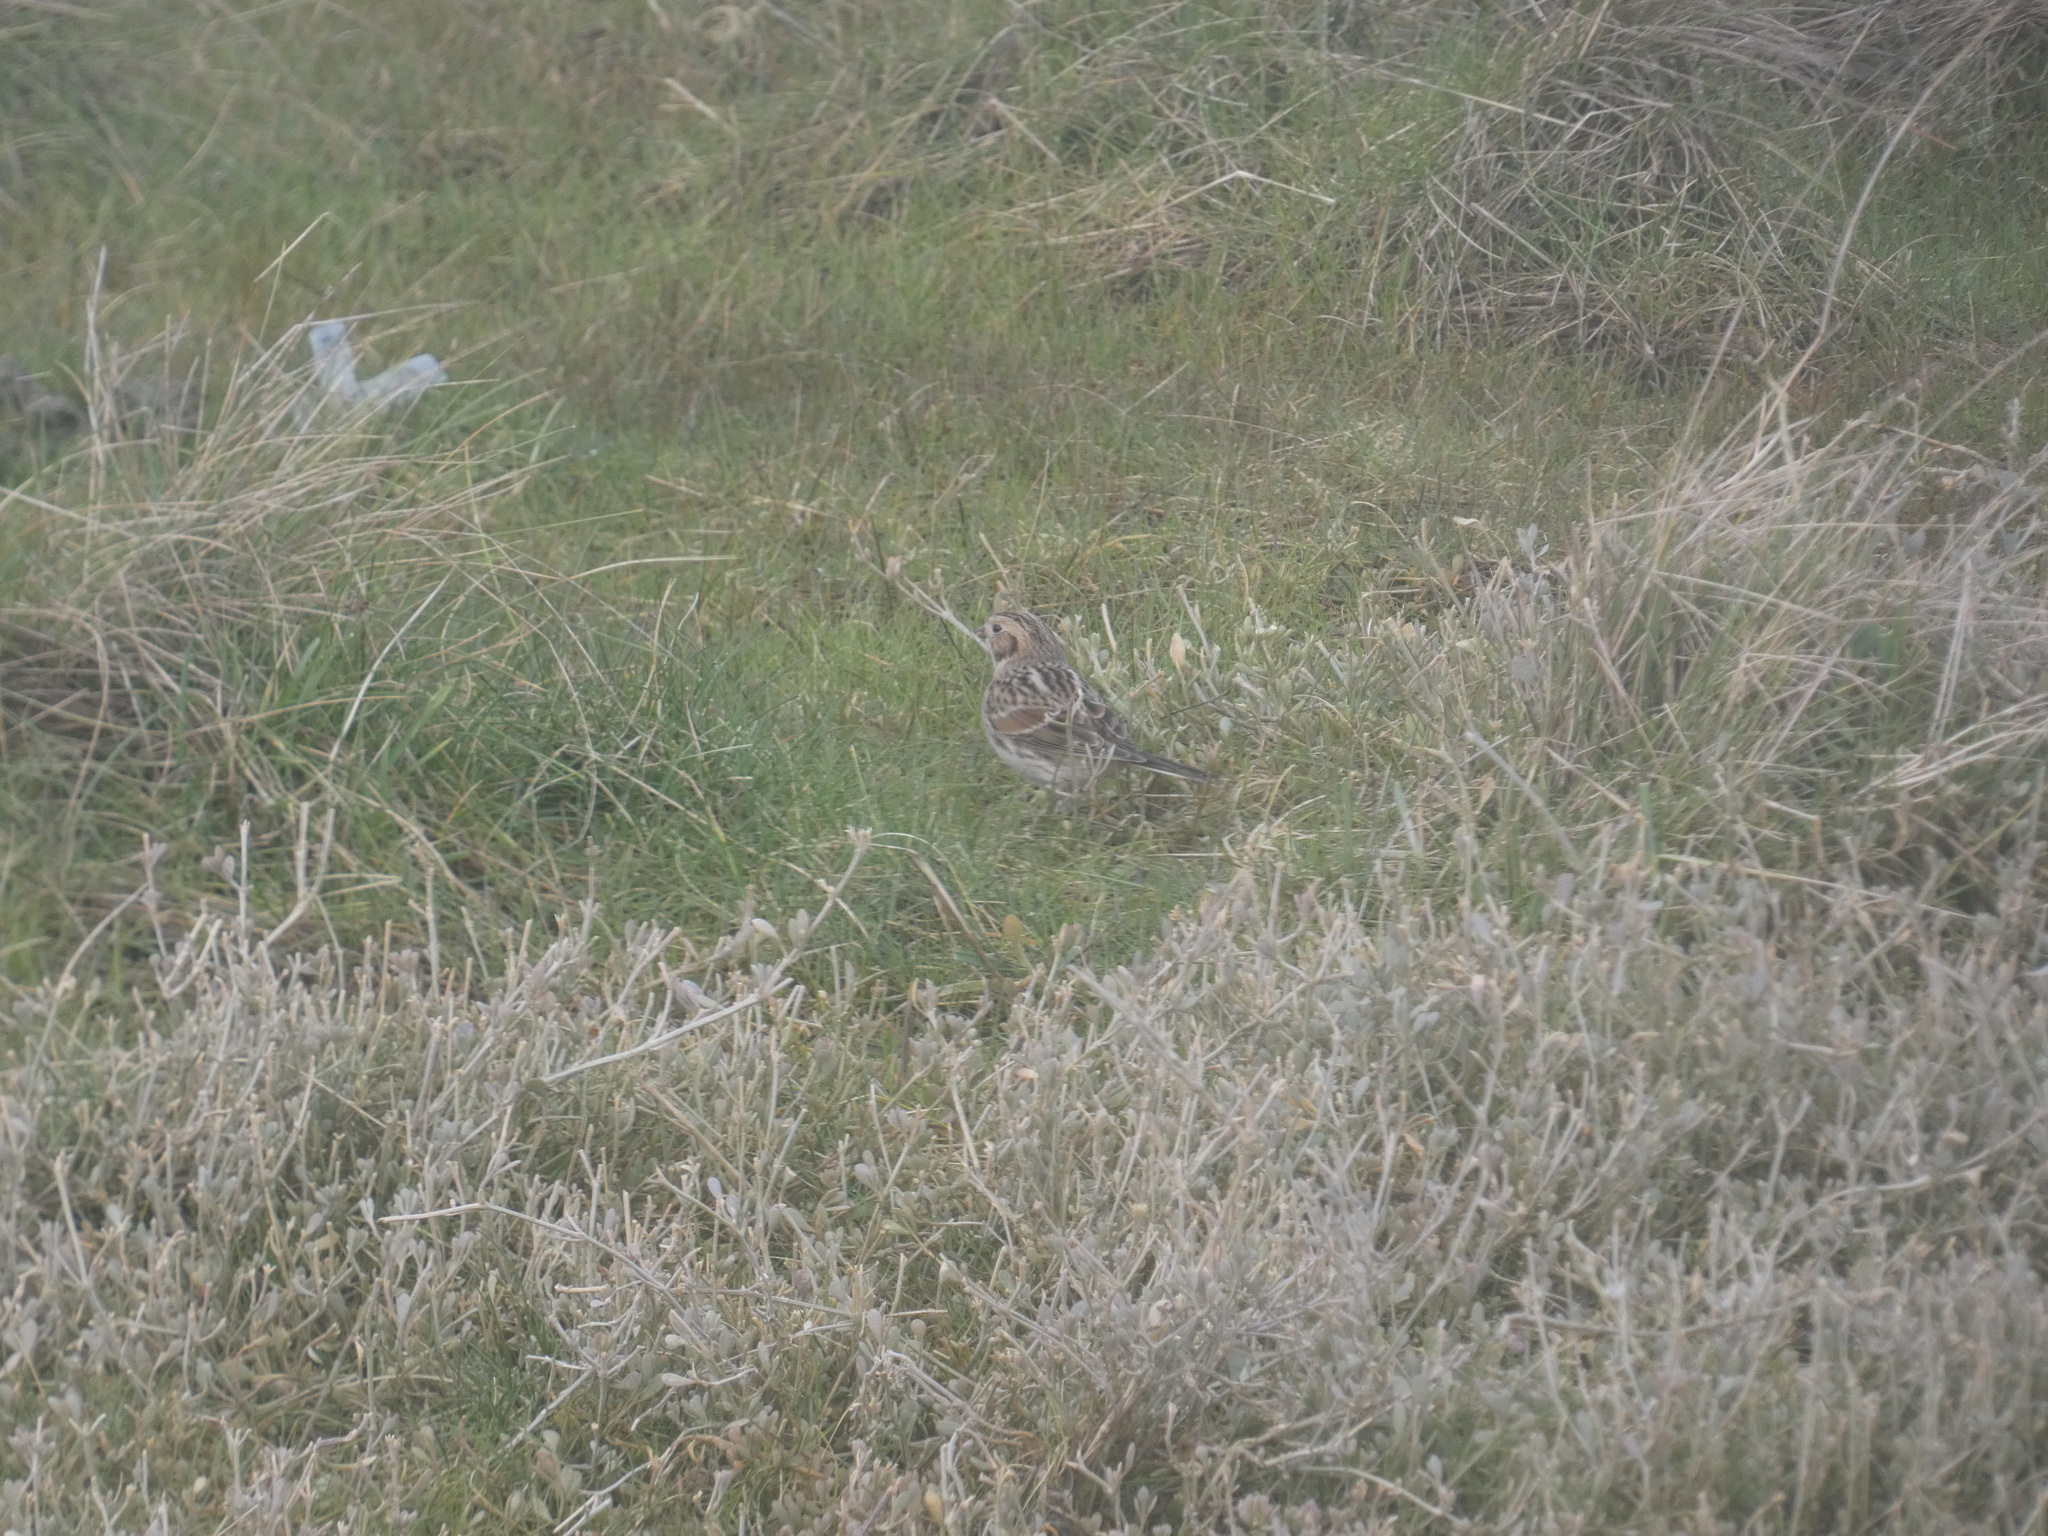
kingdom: Animalia
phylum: Chordata
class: Aves
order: Passeriformes
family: Calcariidae
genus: Calcarius
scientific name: Calcarius lapponicus
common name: Lapland longspur
